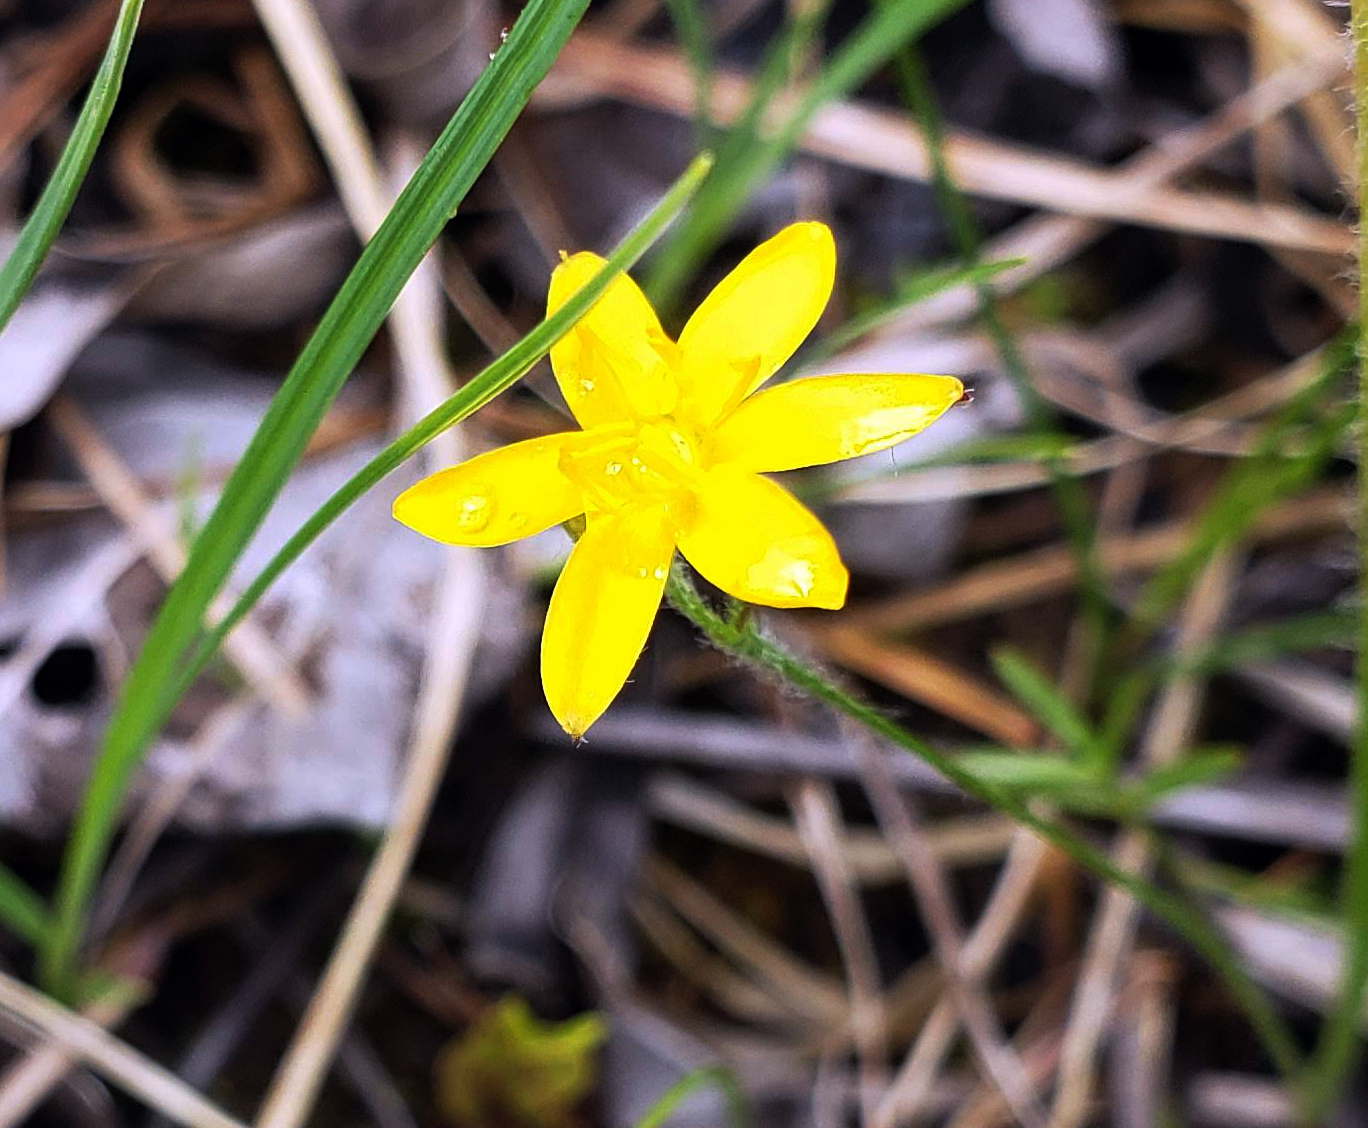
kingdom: Plantae
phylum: Tracheophyta
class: Liliopsida
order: Asparagales
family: Hypoxidaceae
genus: Hypoxis
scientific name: Hypoxis hirsuta
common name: Common goldstar
